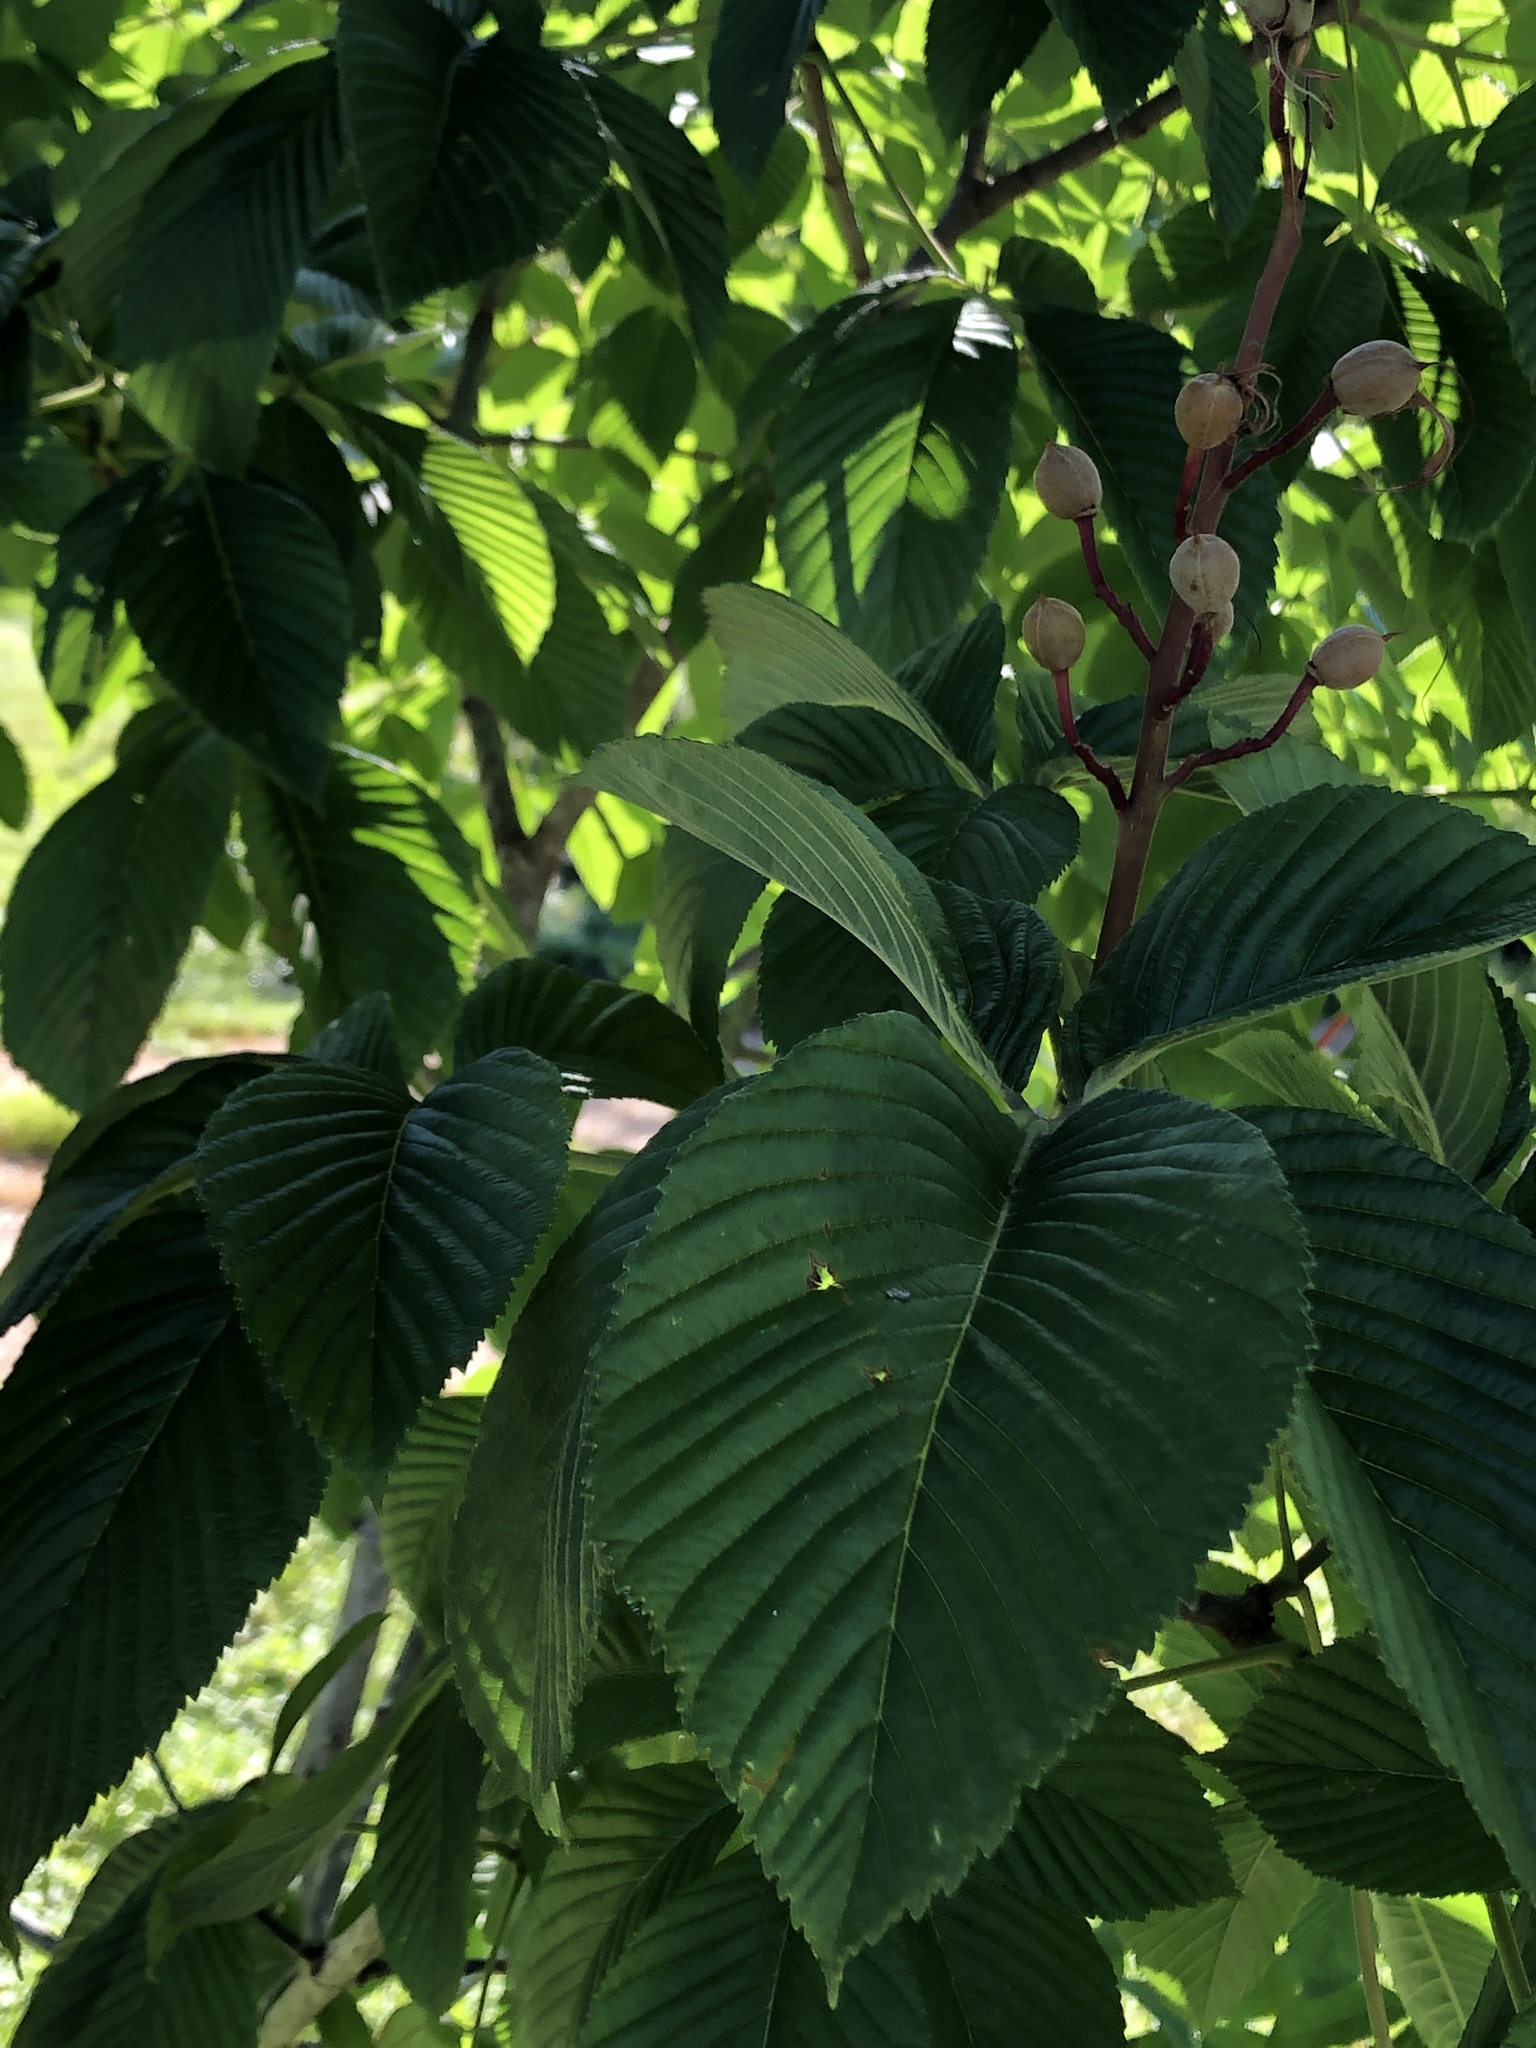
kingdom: Plantae
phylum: Tracheophyta
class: Magnoliopsida
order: Sapindales
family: Sapindaceae
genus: Aesculus
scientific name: Aesculus pavia
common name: Red buckeye
